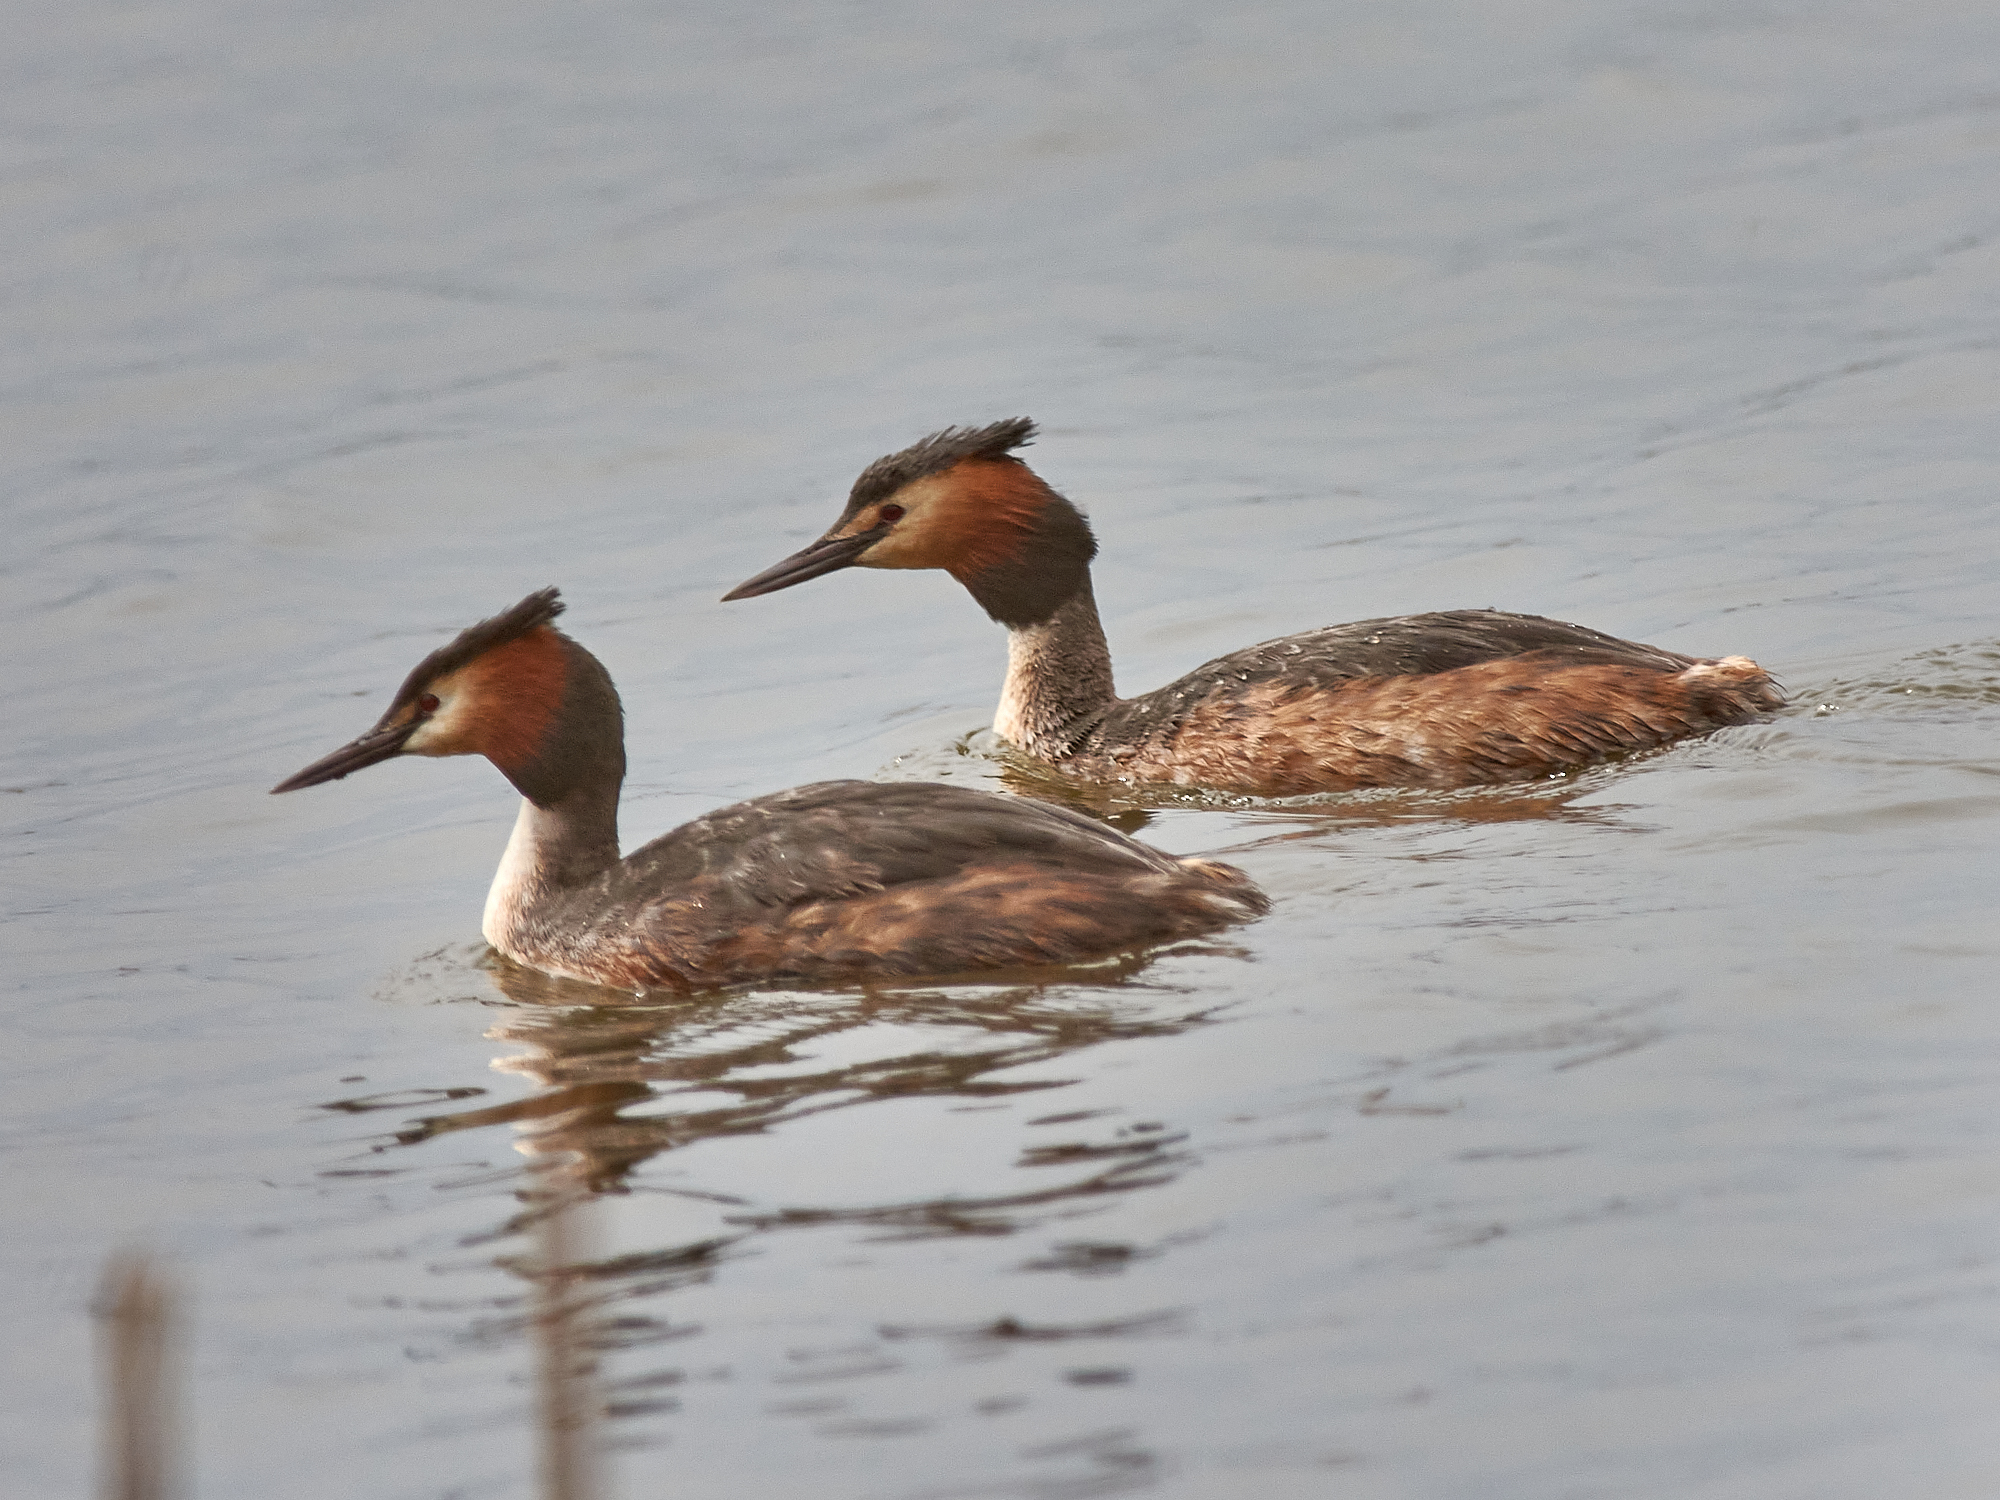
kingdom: Animalia
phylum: Chordata
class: Aves
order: Podicipediformes
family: Podicipedidae
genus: Podiceps
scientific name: Podiceps cristatus
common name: Great crested grebe
